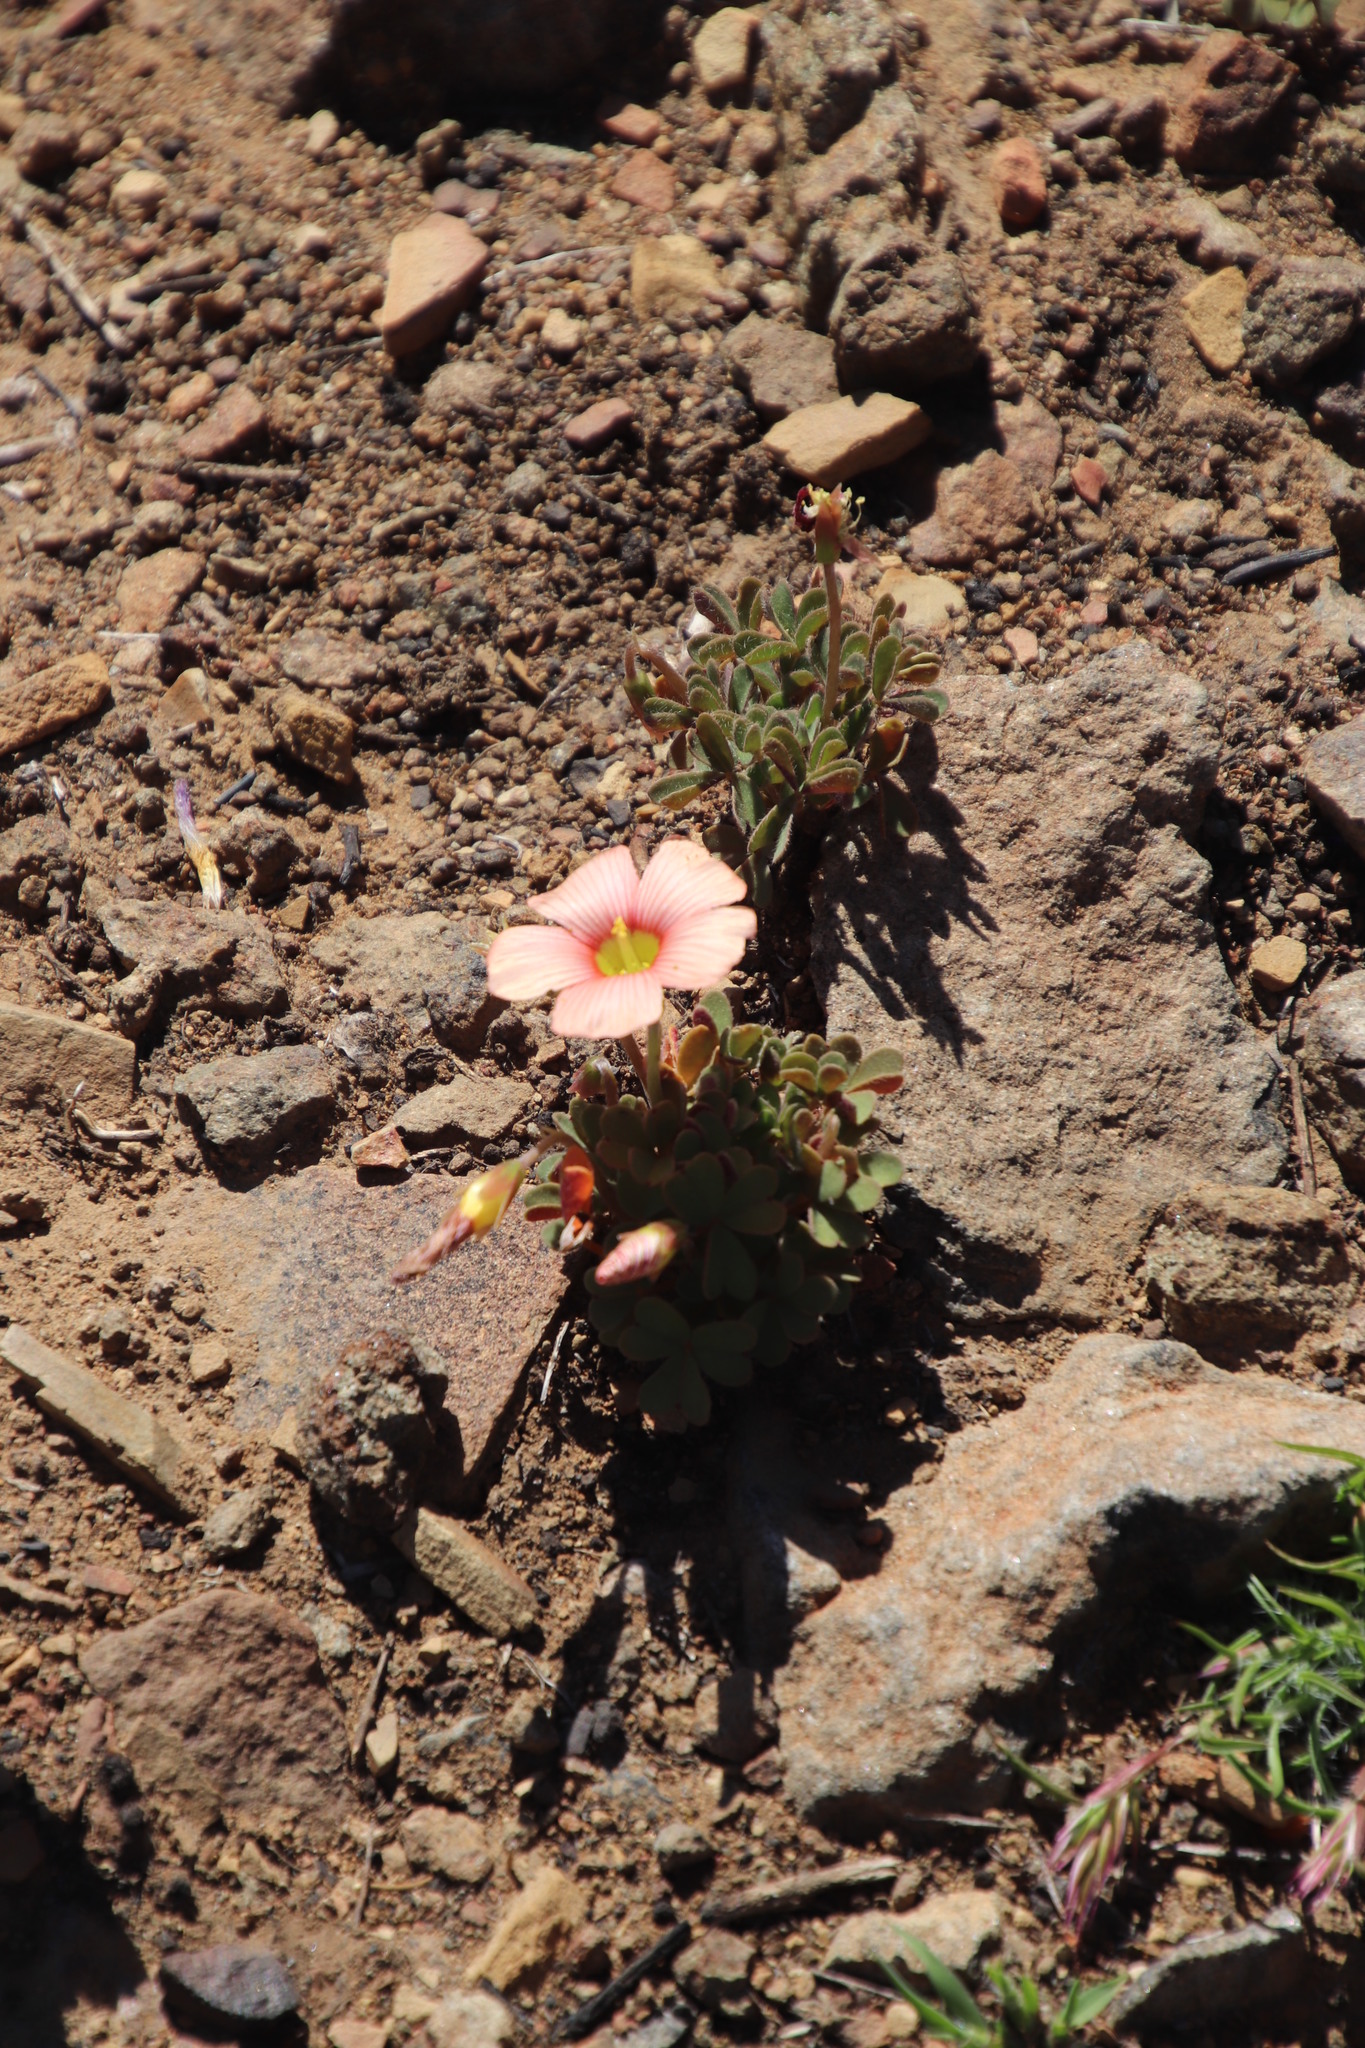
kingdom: Plantae
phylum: Tracheophyta
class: Magnoliopsida
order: Oxalidales
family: Oxalidaceae
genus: Oxalis
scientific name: Oxalis obtusa
